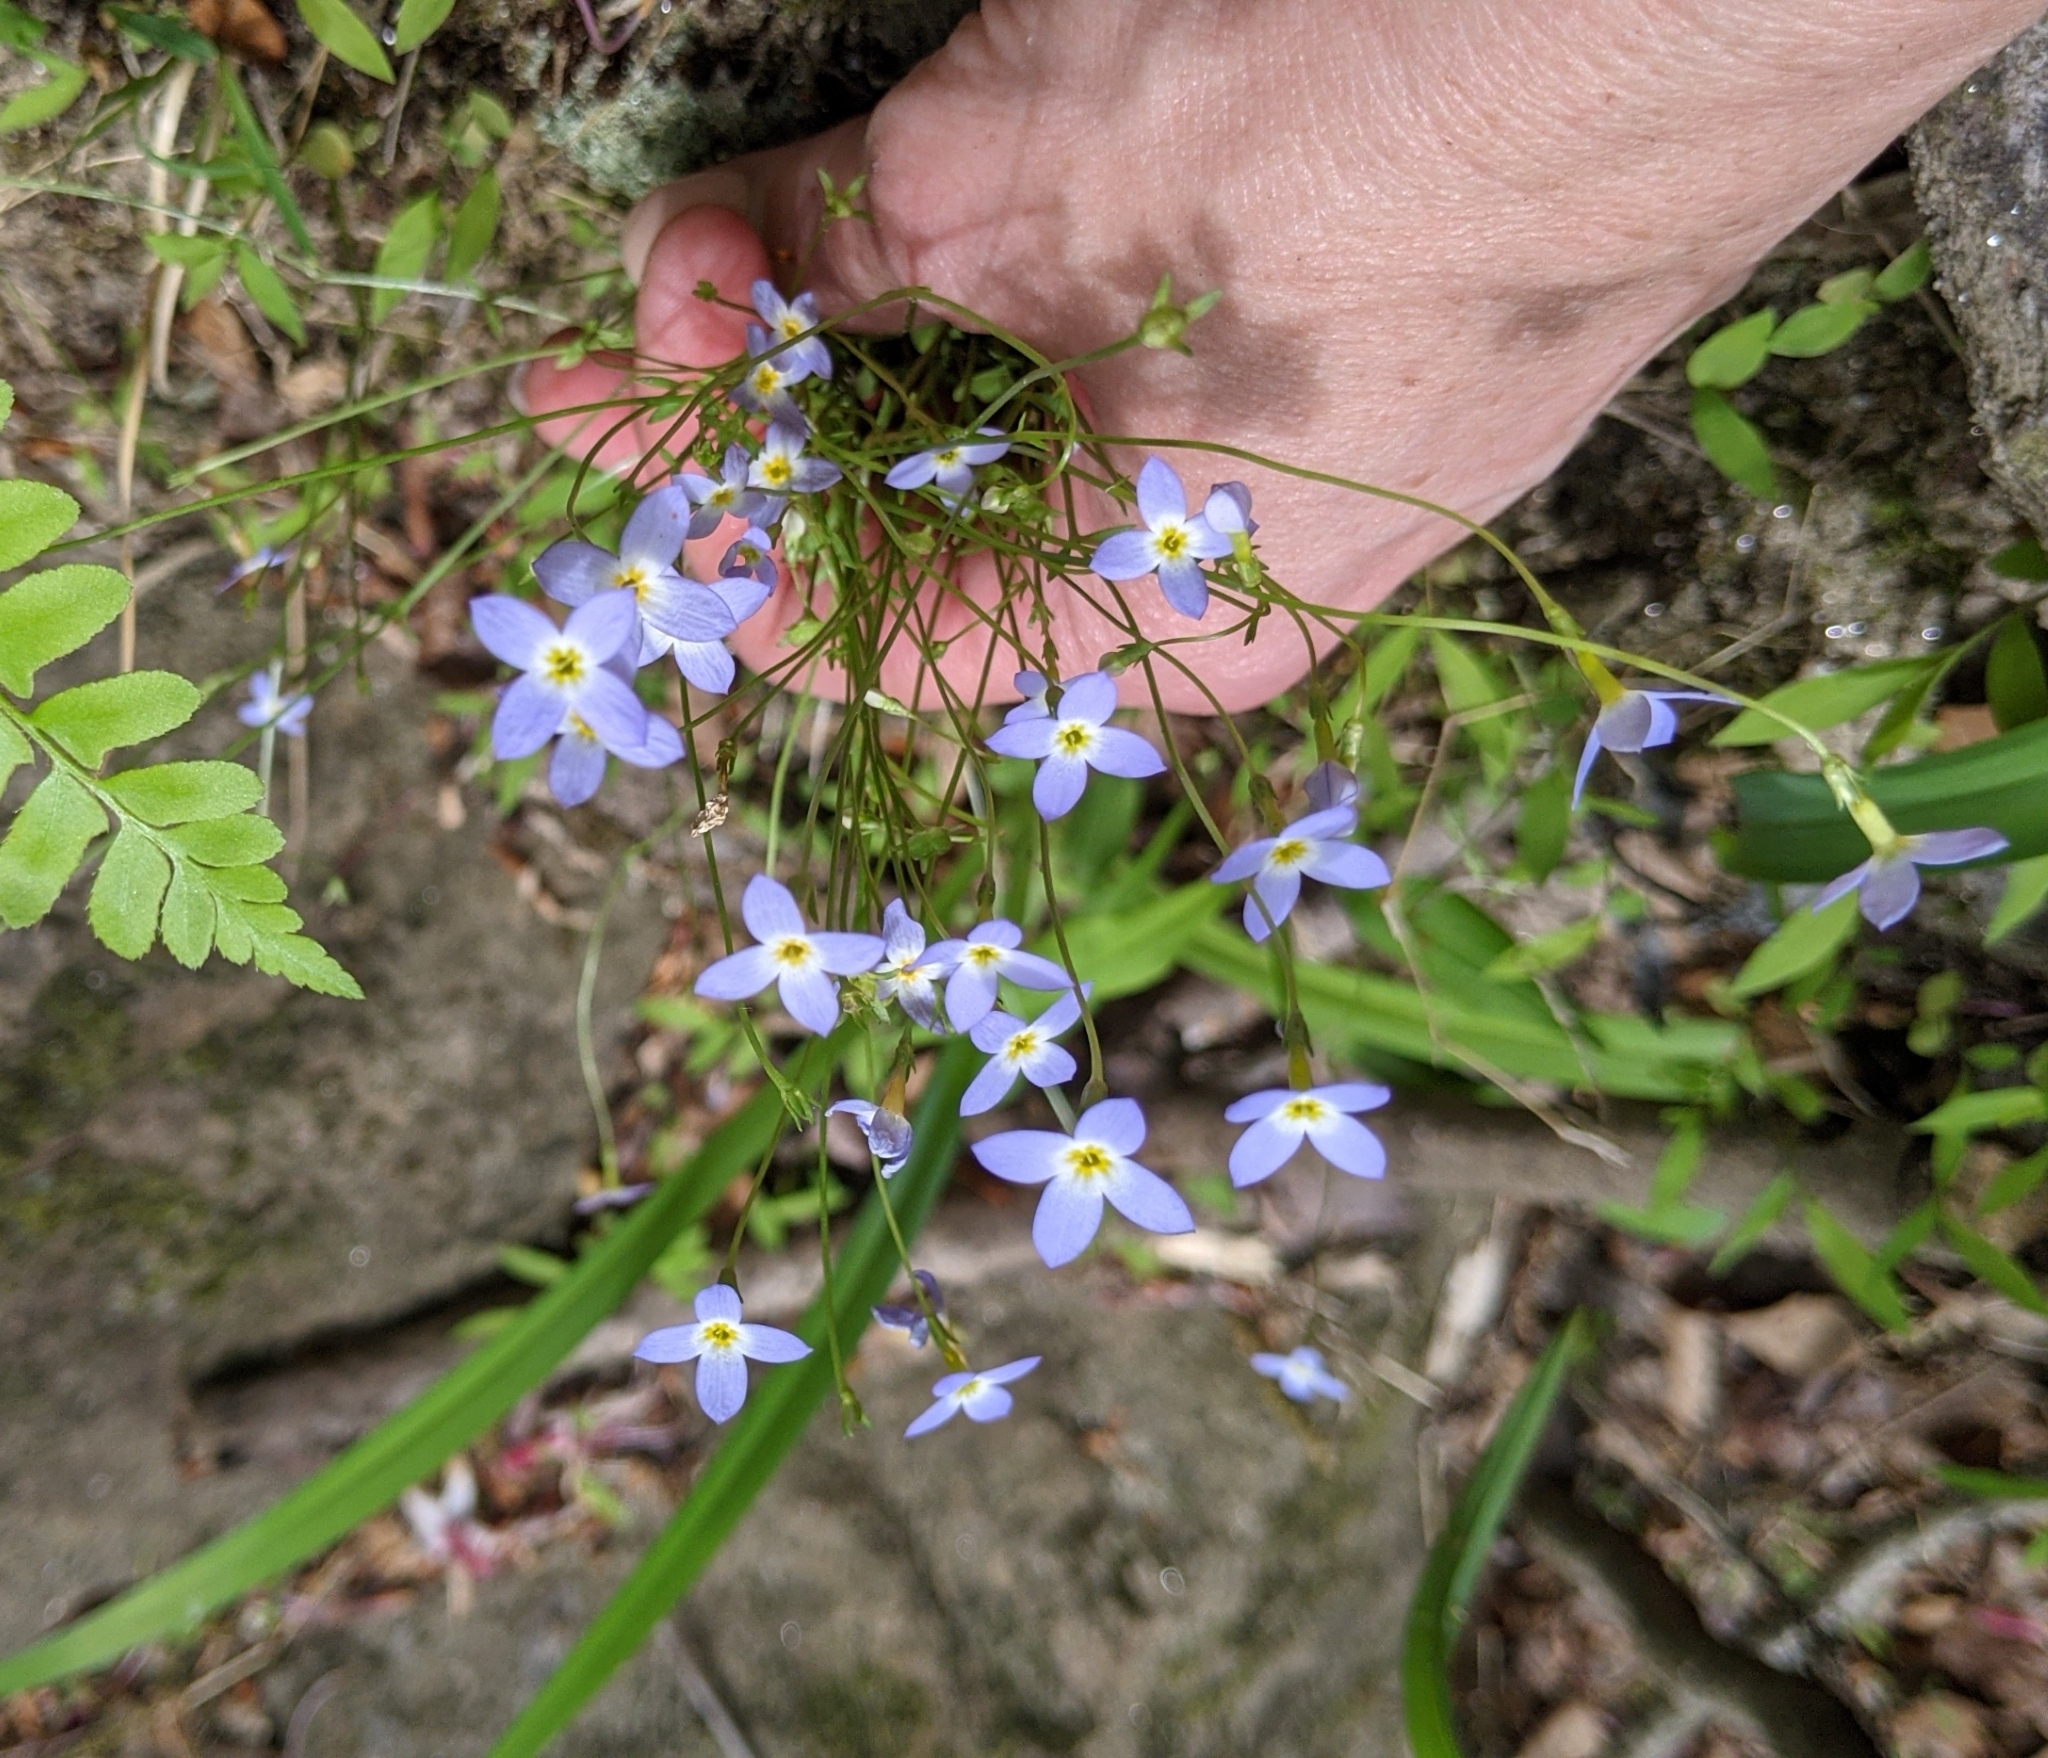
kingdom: Plantae
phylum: Tracheophyta
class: Magnoliopsida
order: Gentianales
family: Rubiaceae
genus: Houstonia
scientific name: Houstonia caerulea
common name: Bluets
